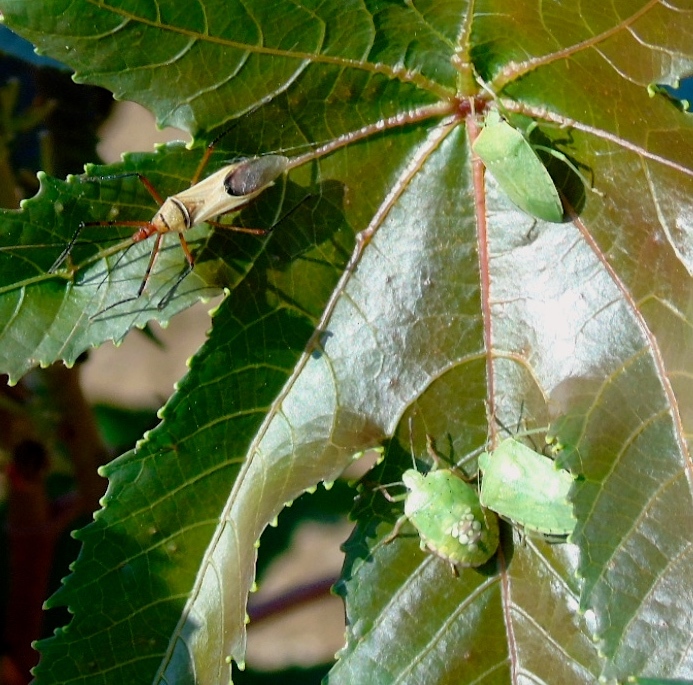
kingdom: Animalia
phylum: Arthropoda
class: Insecta
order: Hemiptera
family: Pentatomidae
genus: Nezara
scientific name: Nezara viridula
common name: Southern green stink bug
